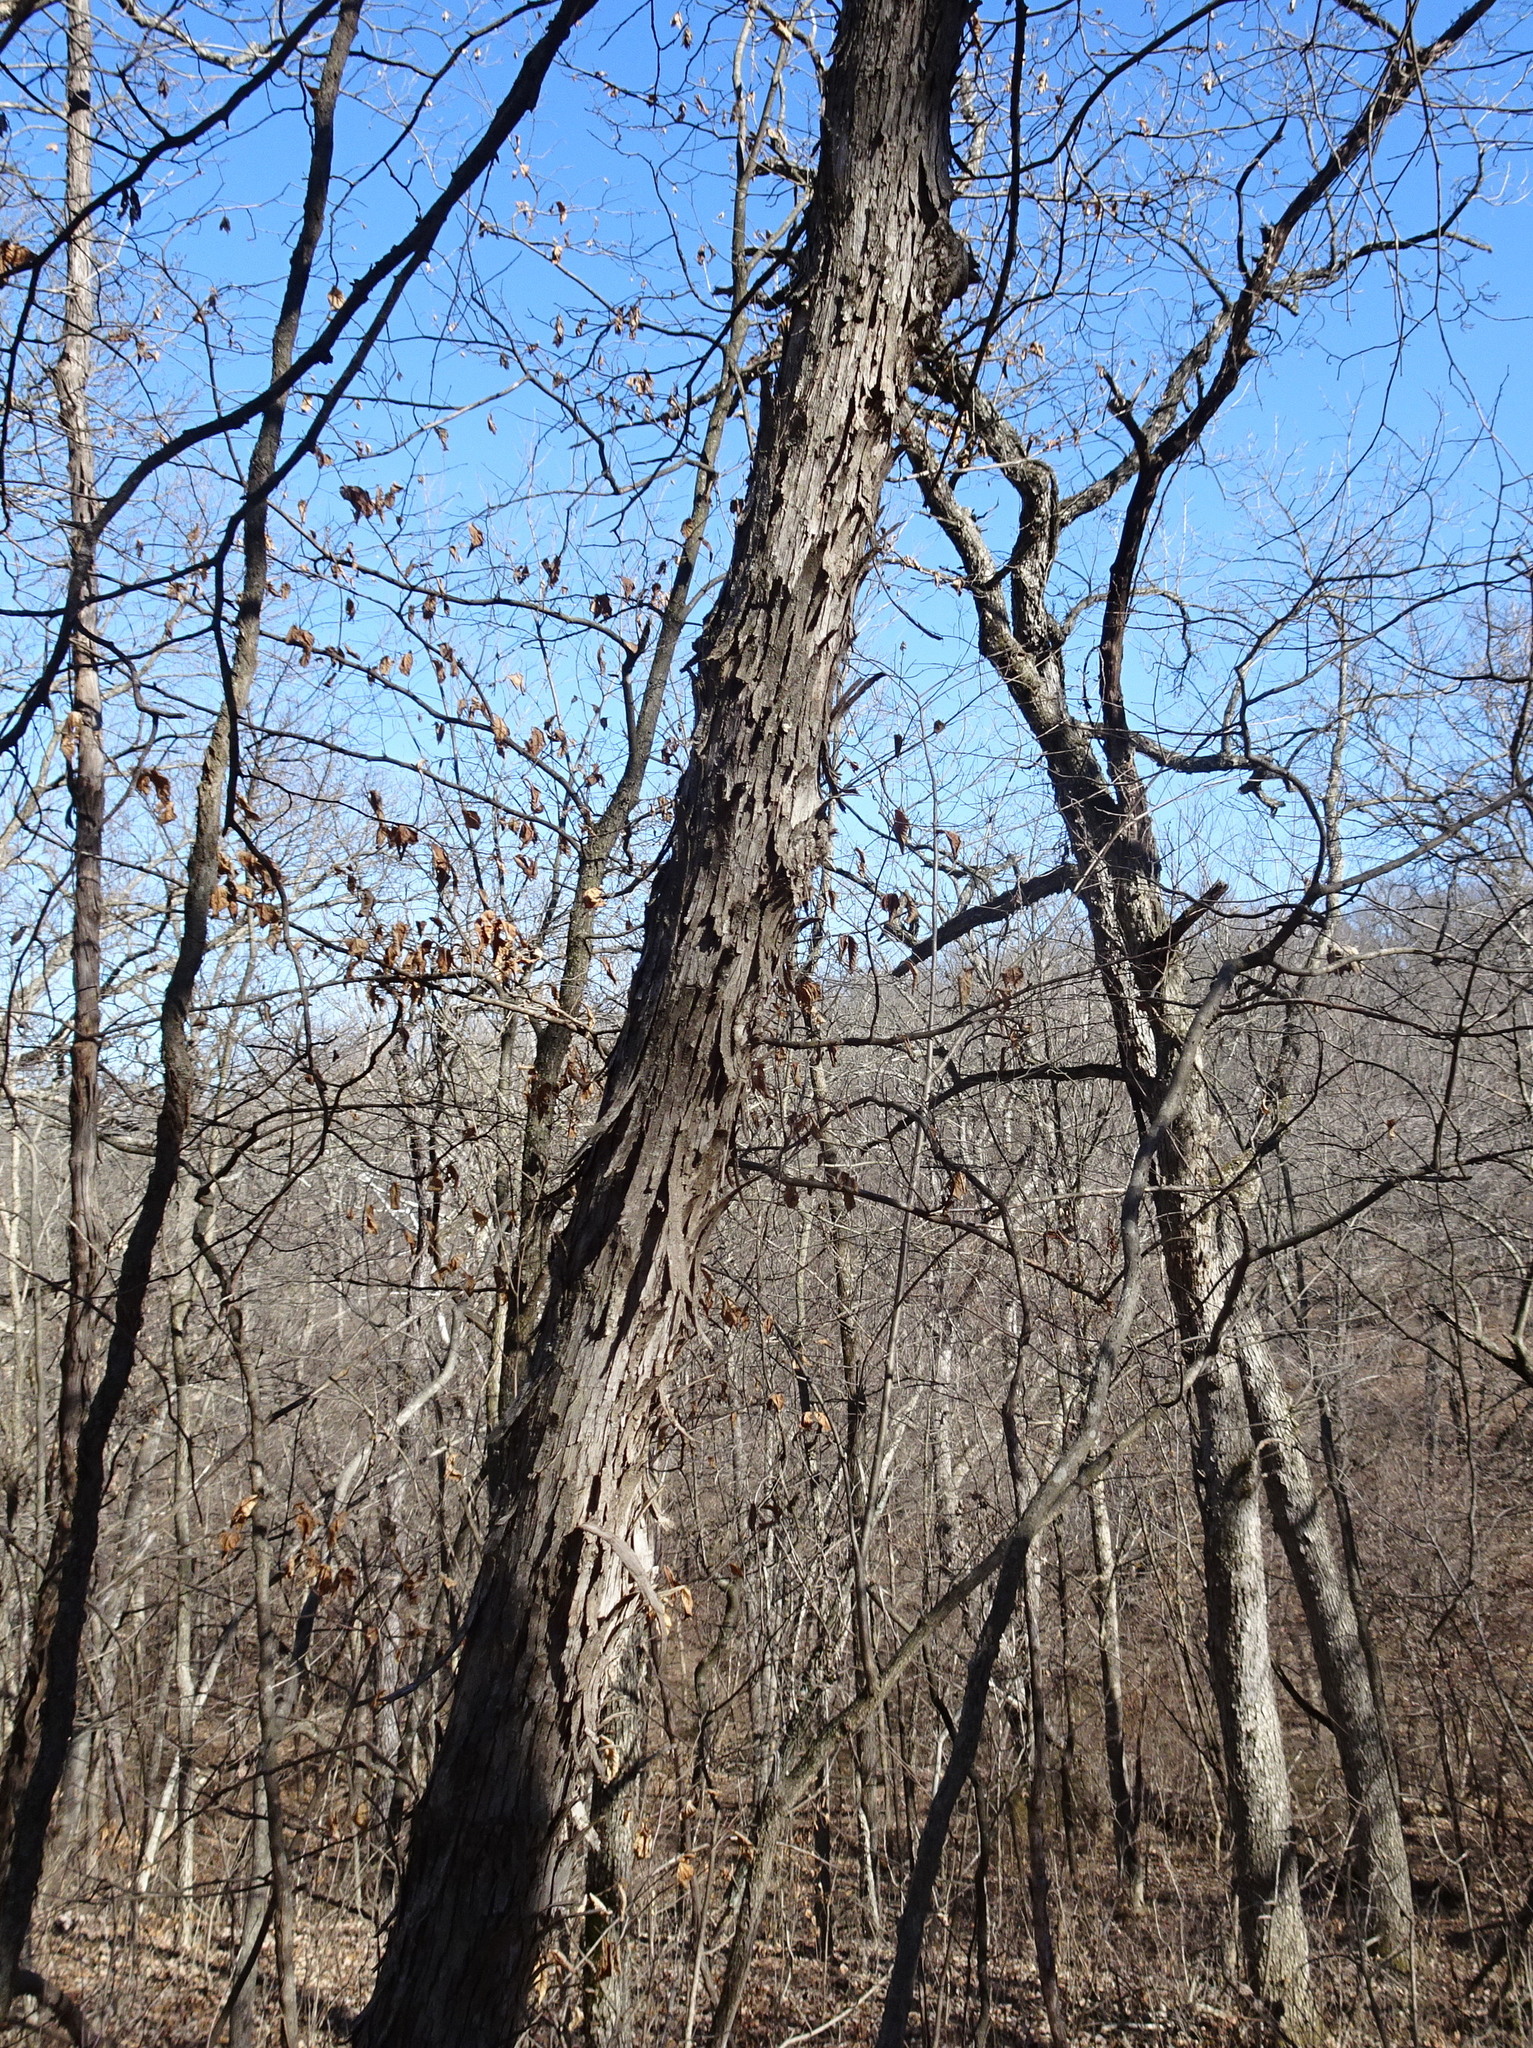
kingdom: Plantae
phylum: Tracheophyta
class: Magnoliopsida
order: Fagales
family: Juglandaceae
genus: Carya
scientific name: Carya ovata
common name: Shagbark hickory
